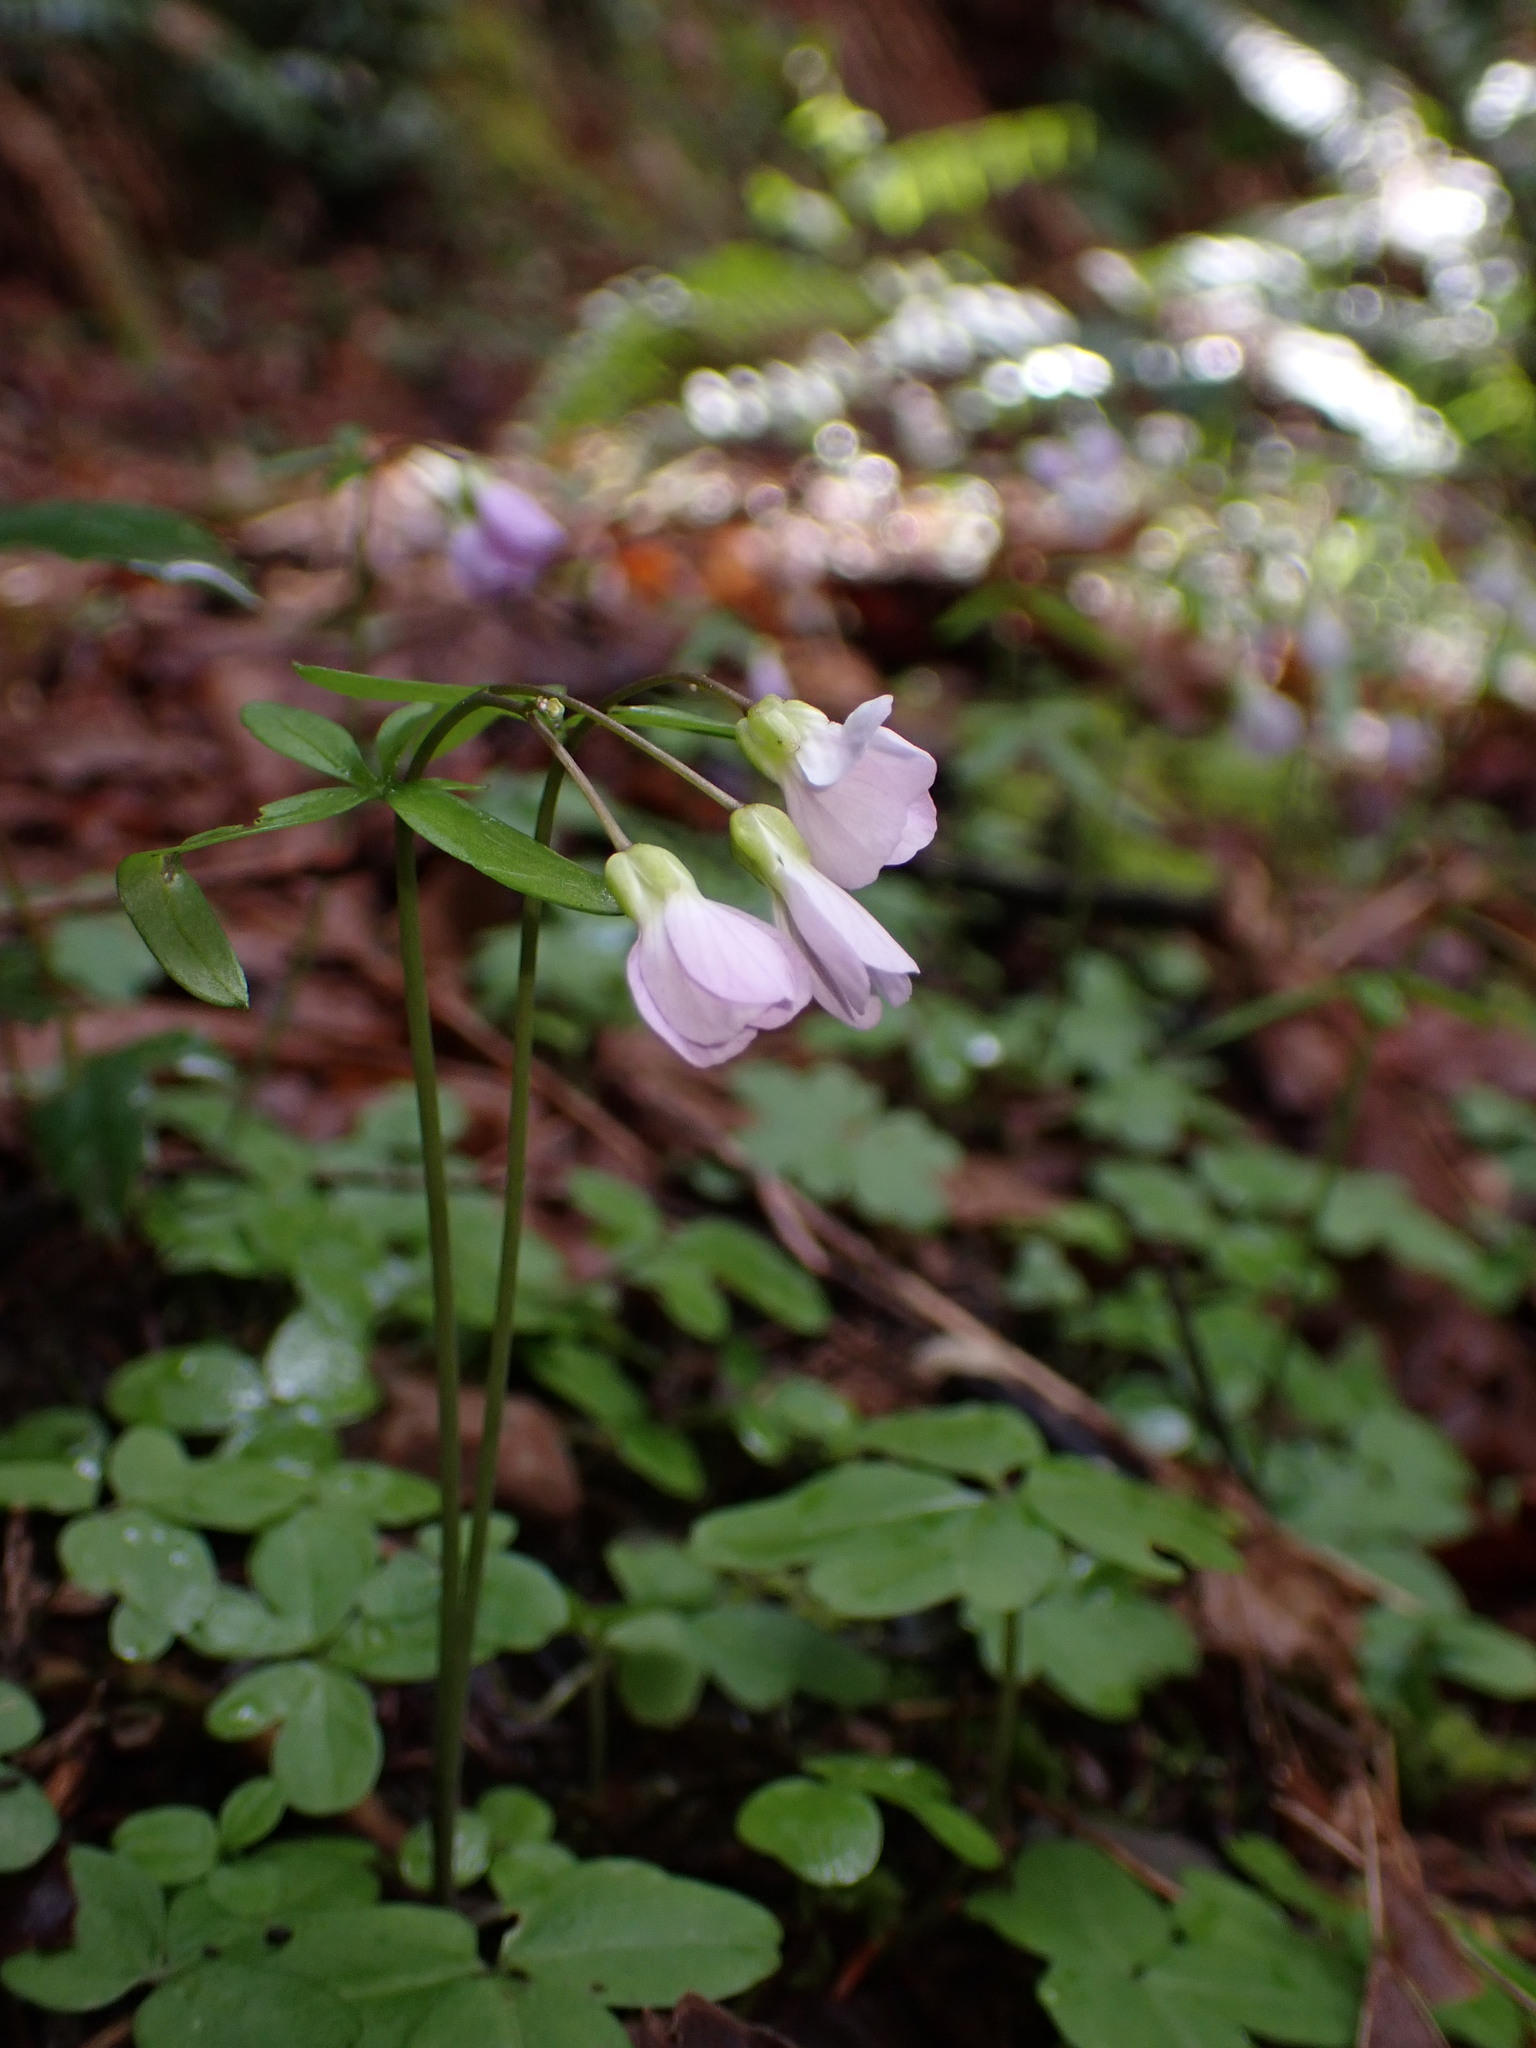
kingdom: Plantae
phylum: Tracheophyta
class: Magnoliopsida
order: Brassicales
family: Brassicaceae
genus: Cardamine
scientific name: Cardamine nuttallii
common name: Nuttall's toothwort
